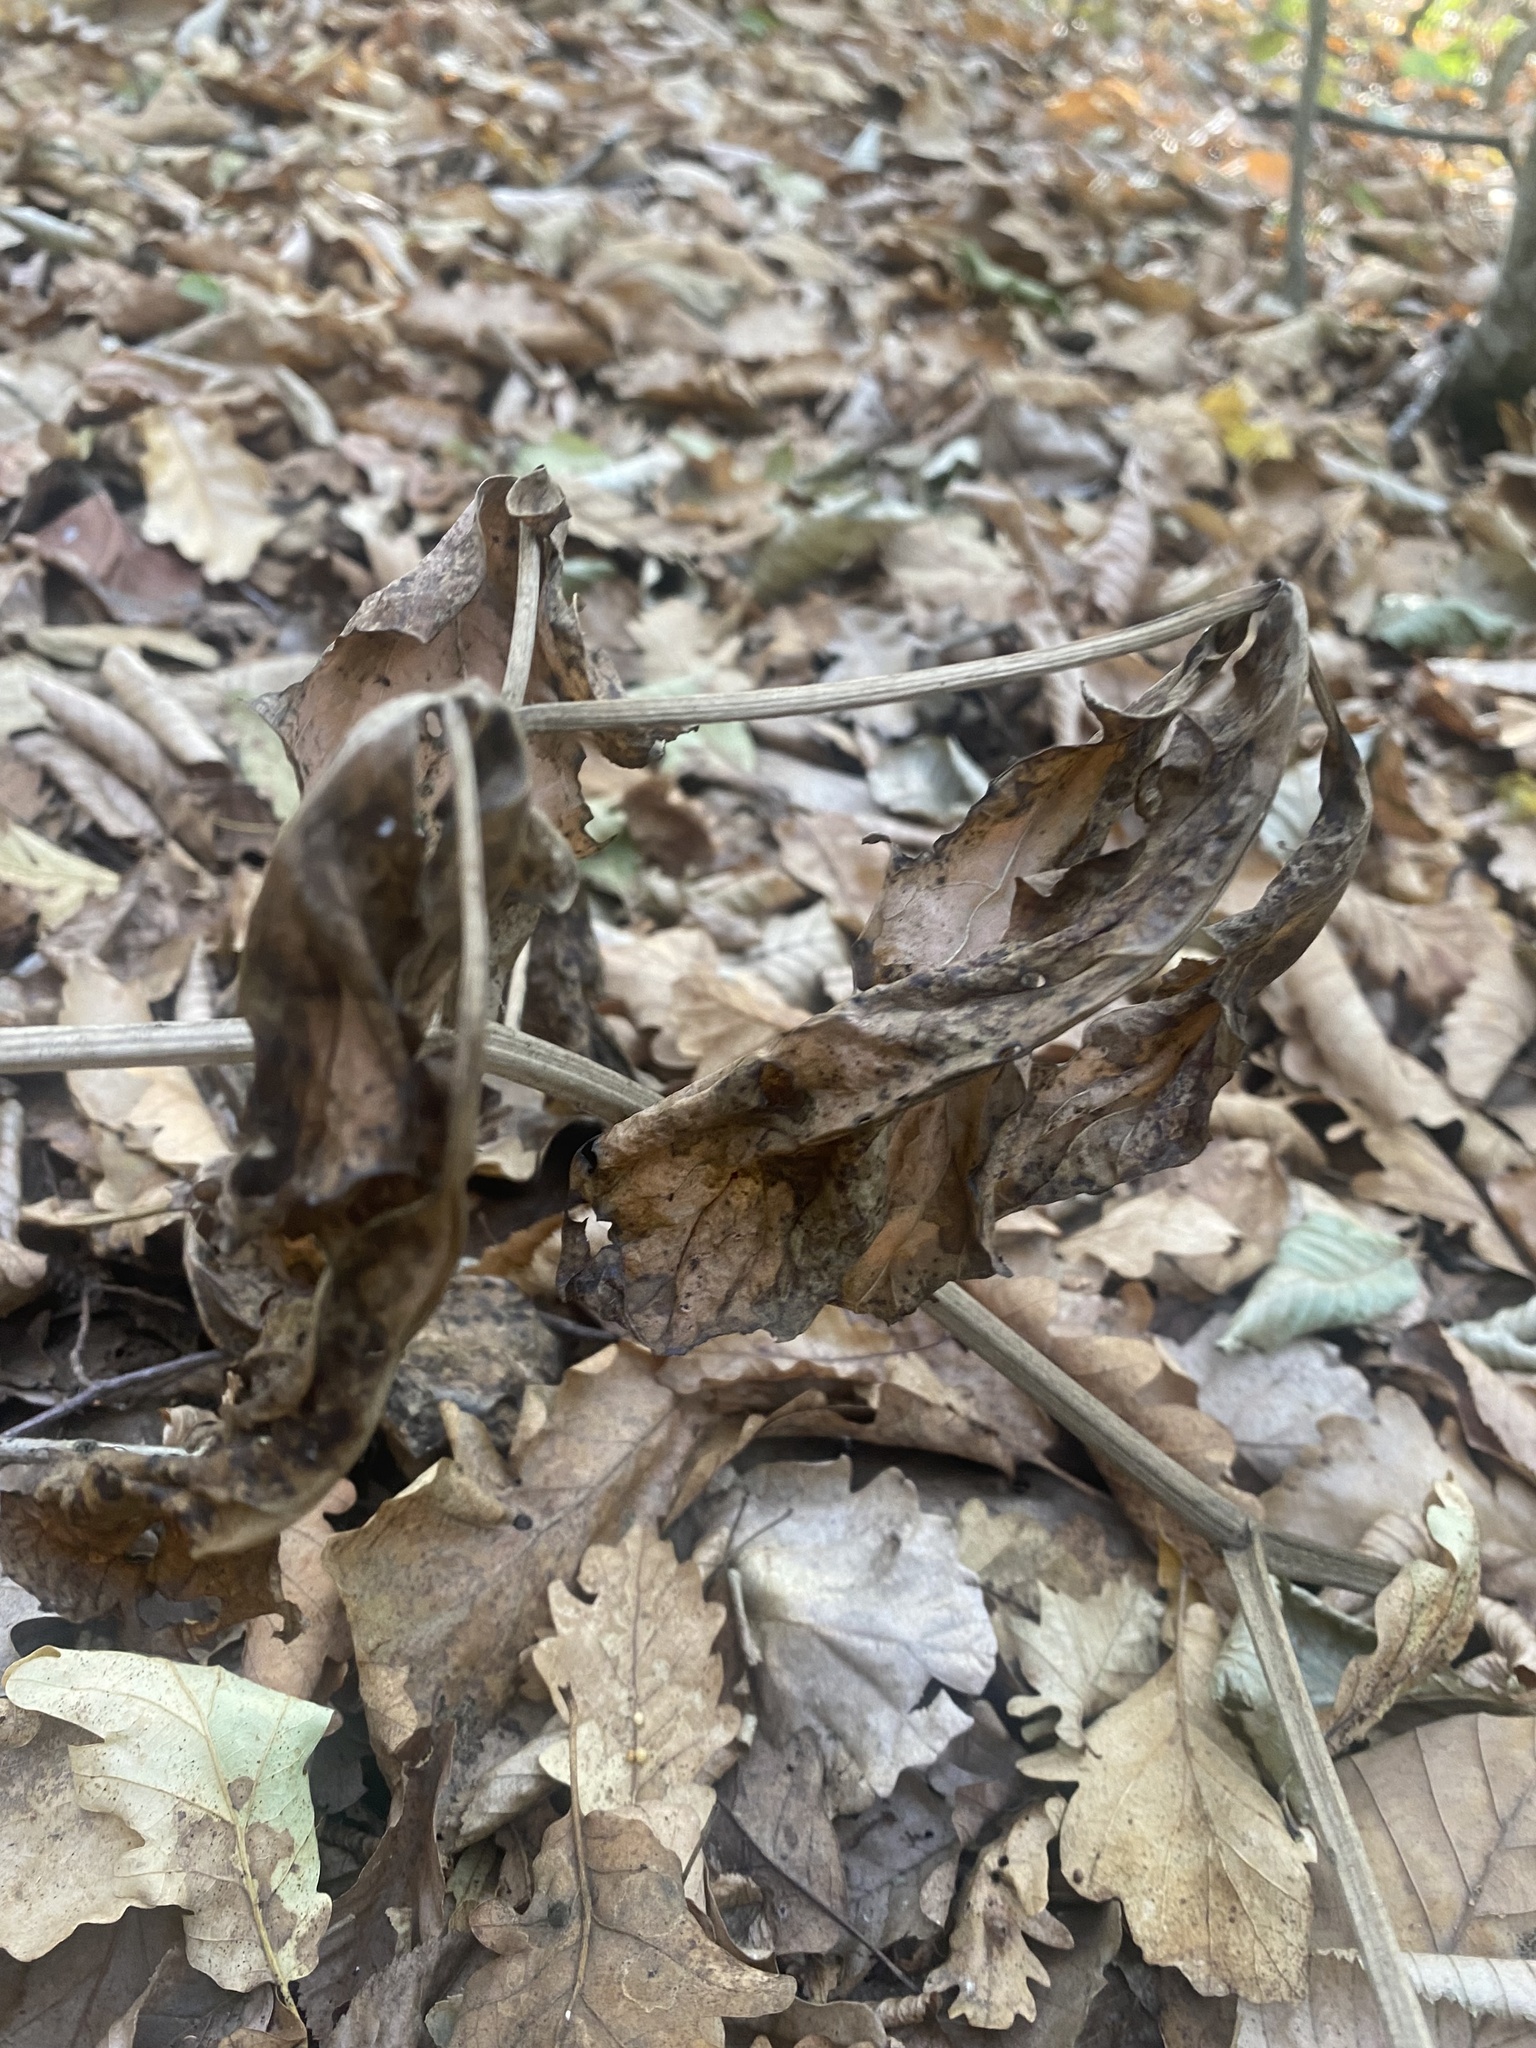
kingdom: Plantae
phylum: Tracheophyta
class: Magnoliopsida
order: Saxifragales
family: Paeoniaceae
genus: Paeonia
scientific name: Paeonia caucasica
